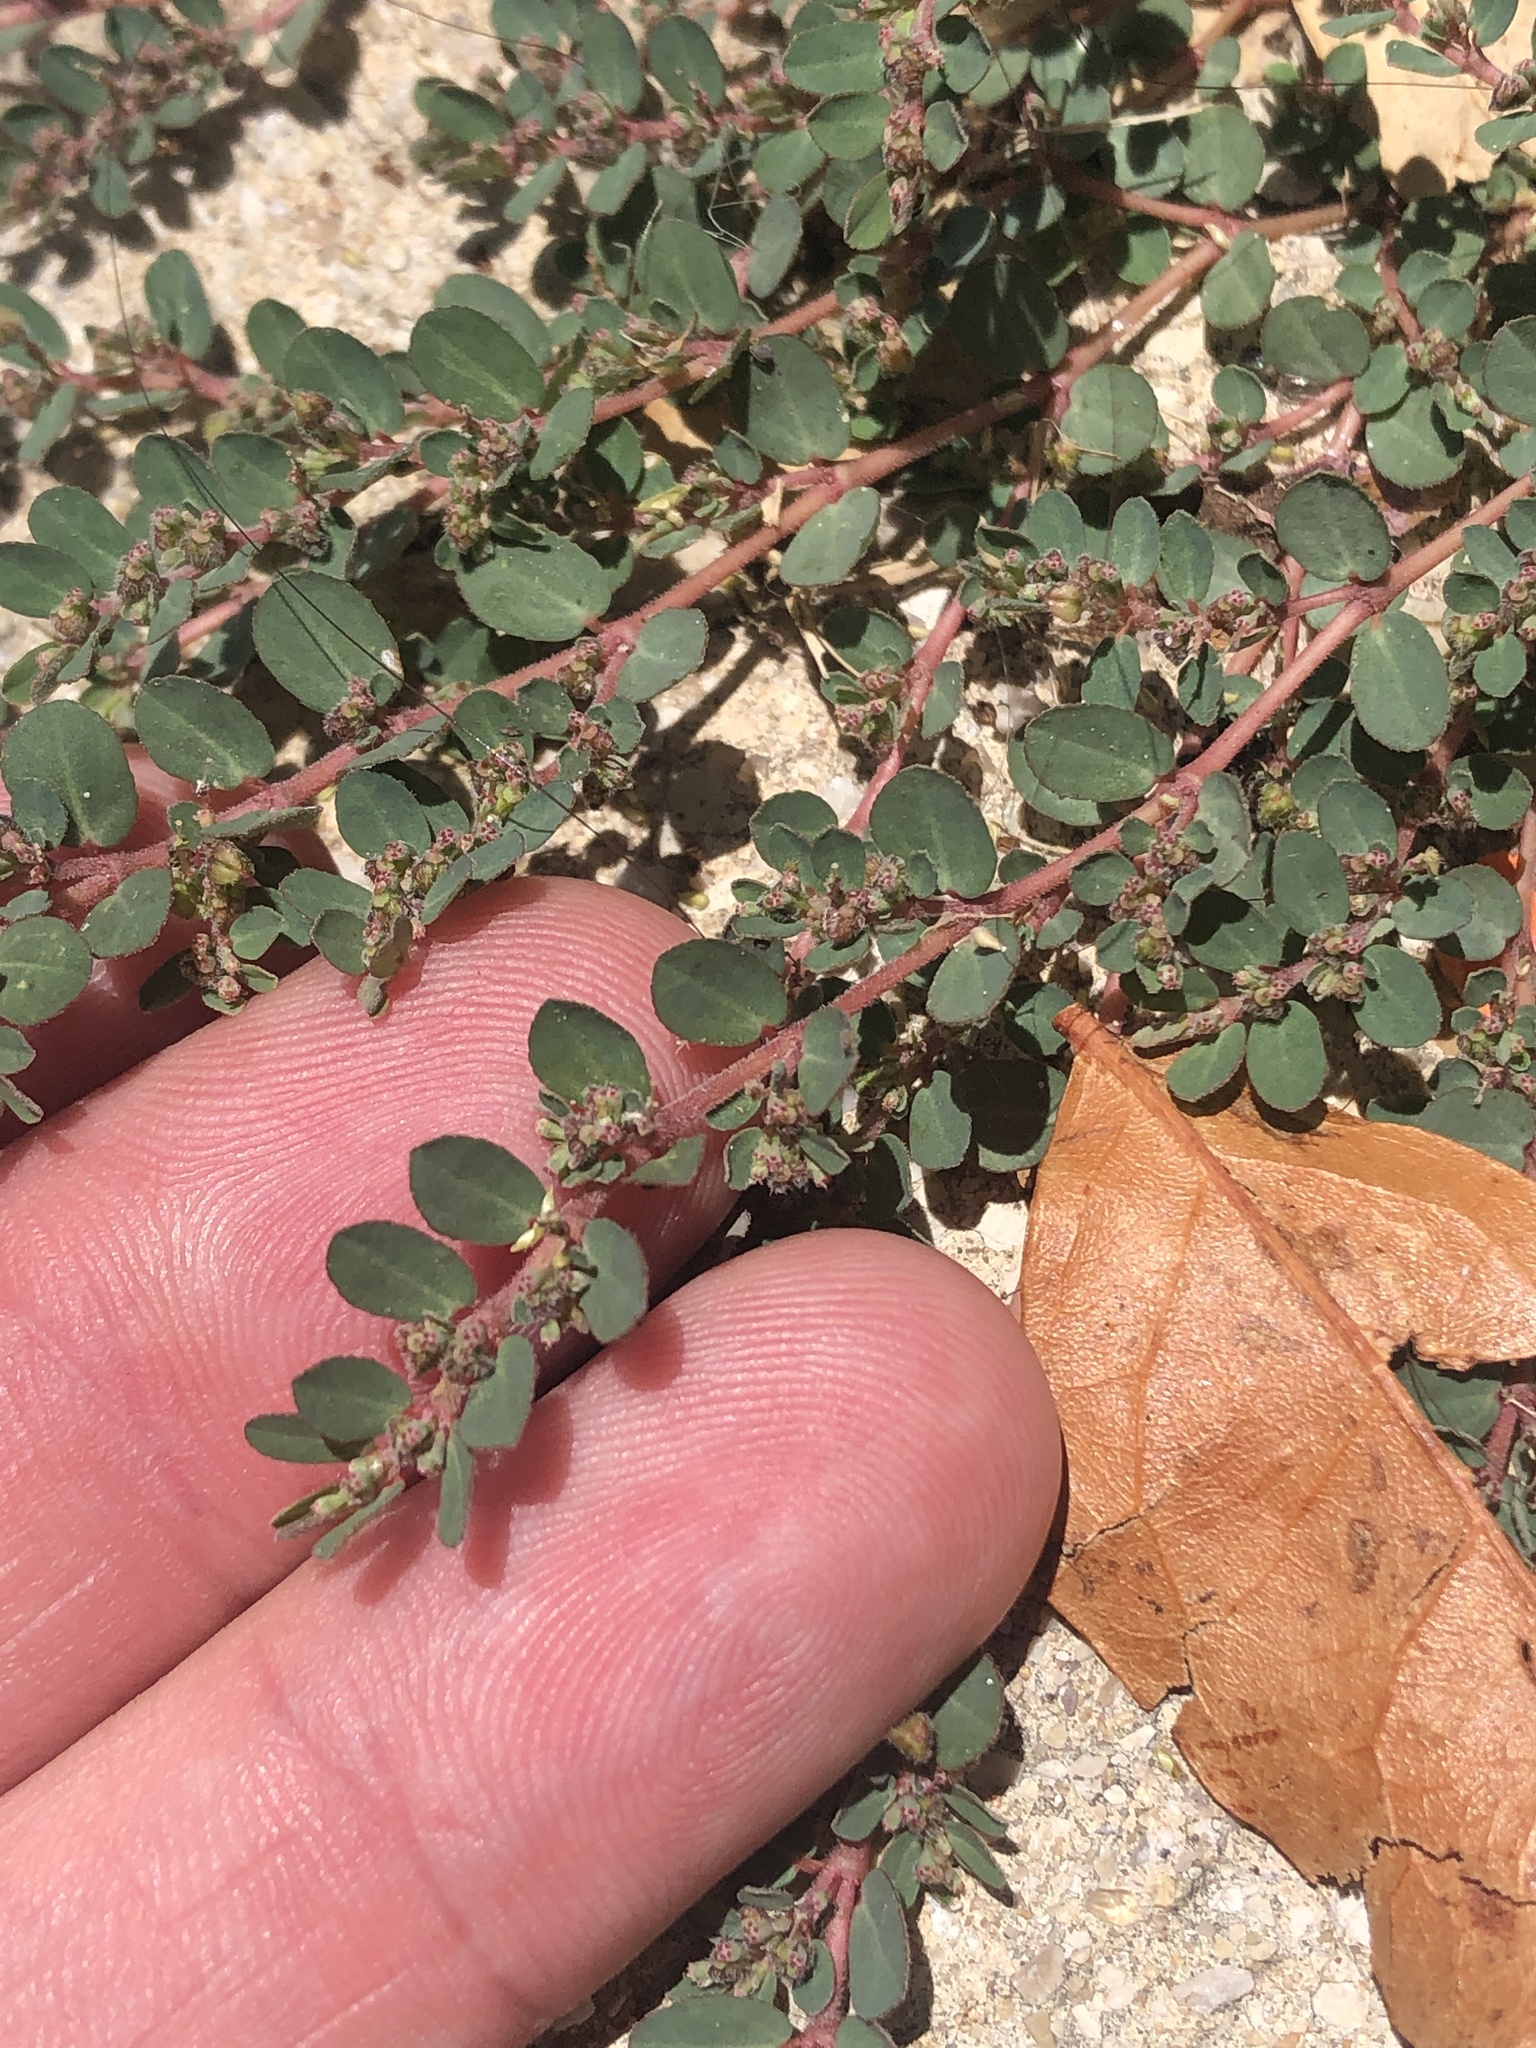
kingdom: Plantae
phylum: Tracheophyta
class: Magnoliopsida
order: Malpighiales
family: Euphorbiaceae
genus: Euphorbia
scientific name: Euphorbia prostrata
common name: Prostrate sandmat
